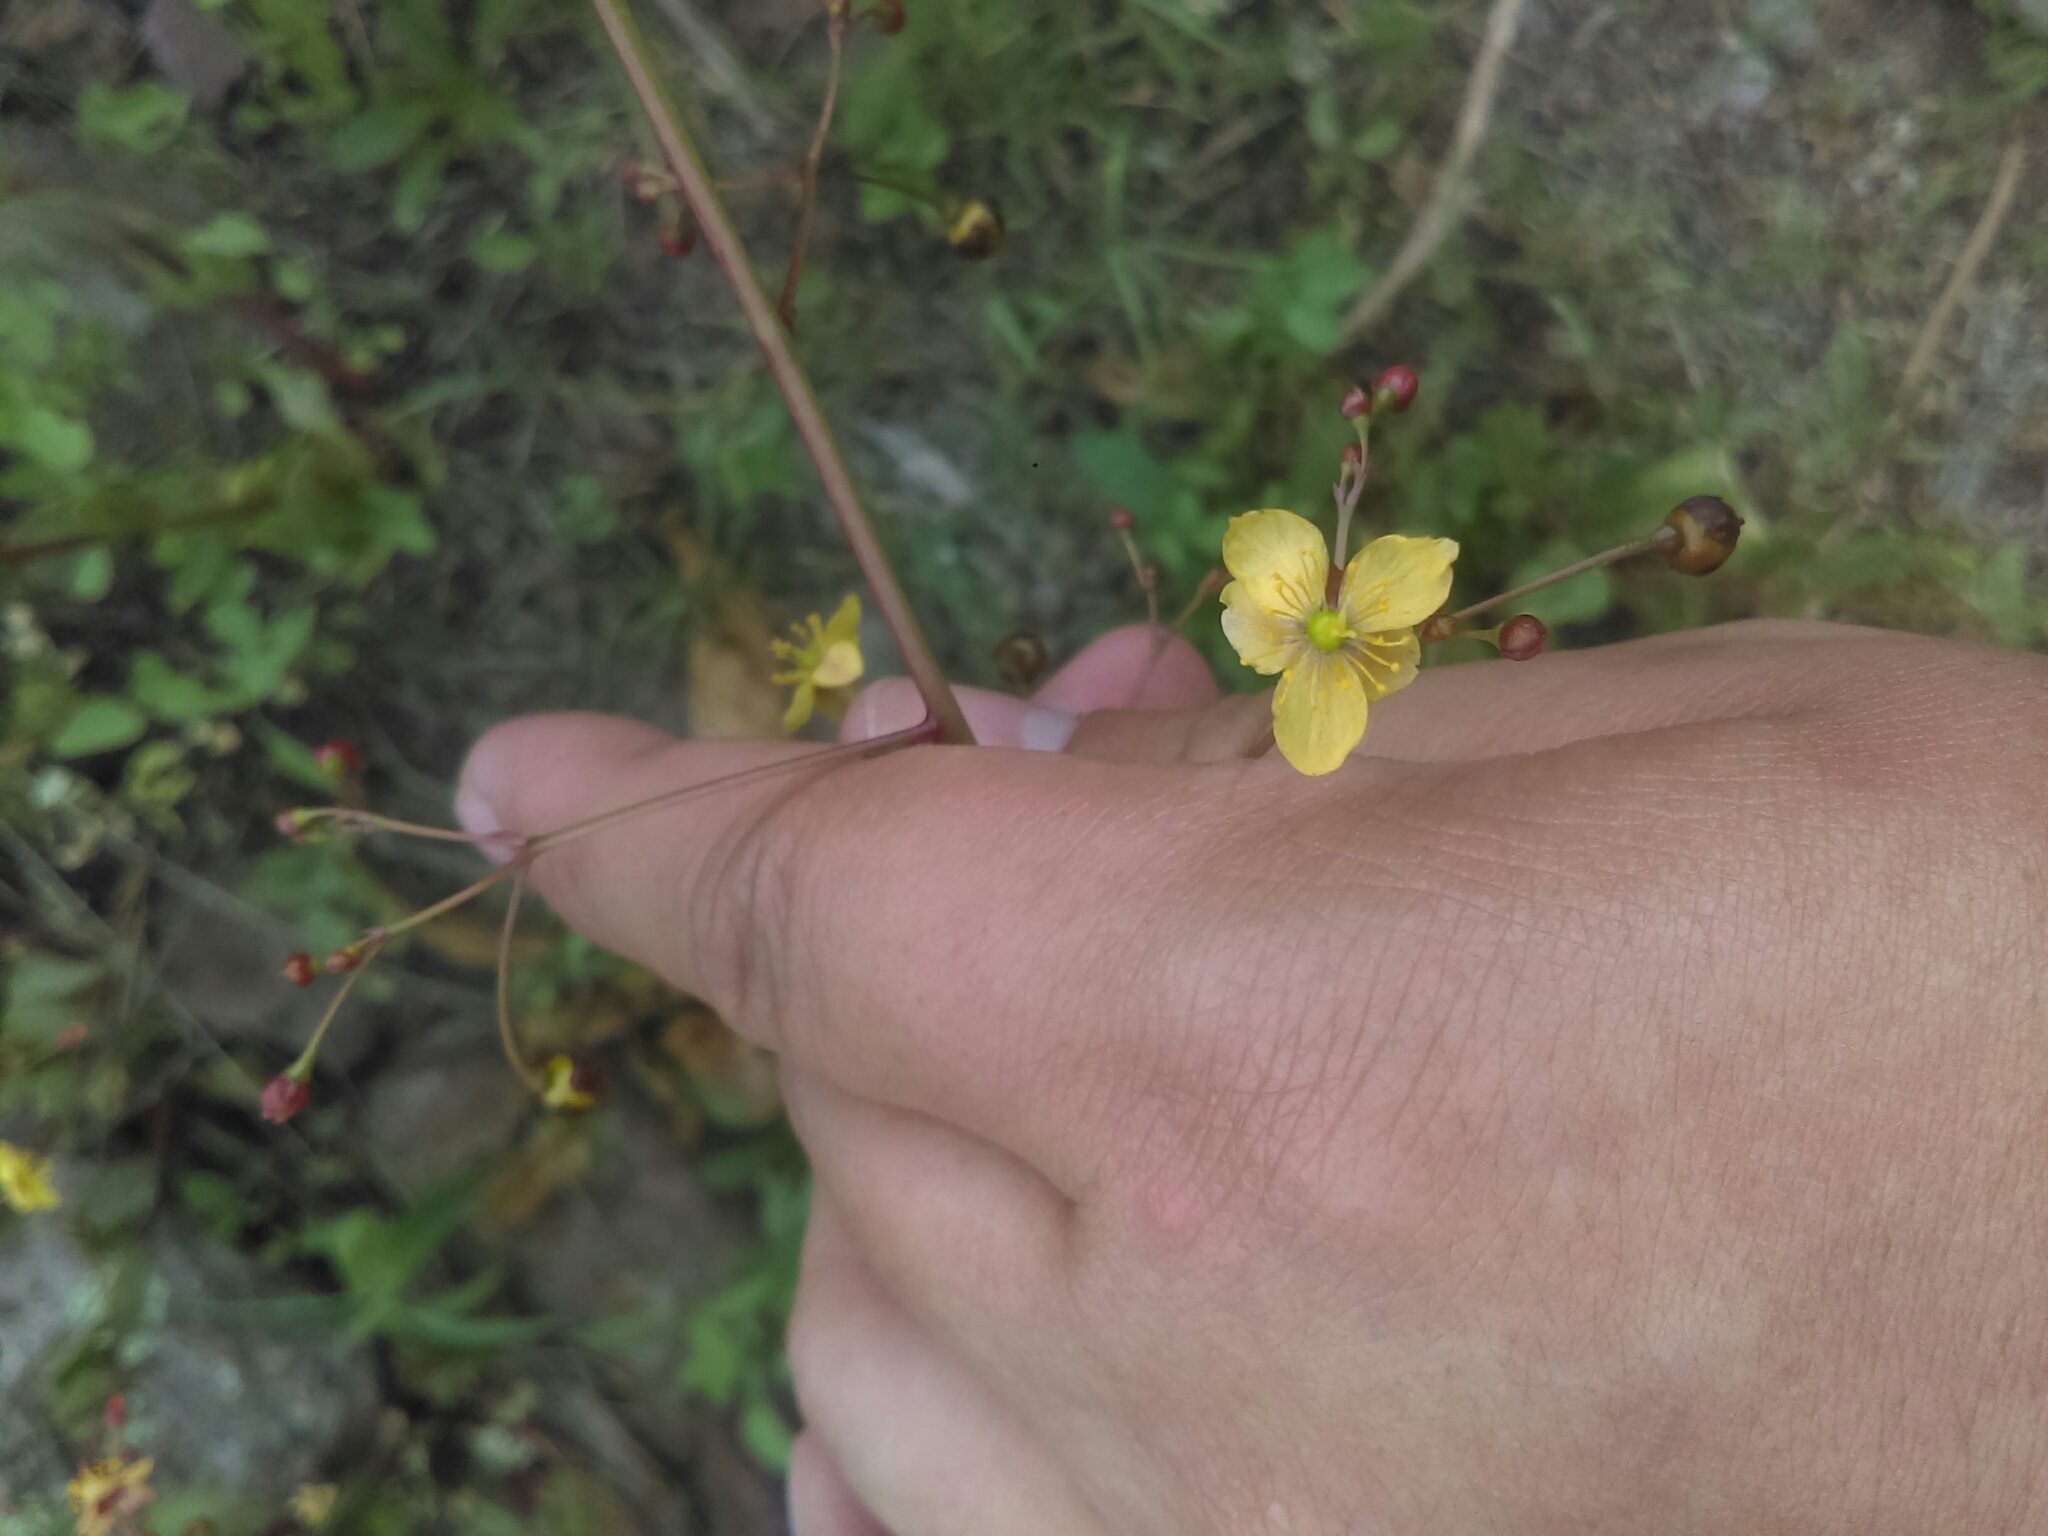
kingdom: Plantae
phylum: Tracheophyta
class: Magnoliopsida
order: Caryophyllales
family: Talinaceae
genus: Talinum
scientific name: Talinum paniculatum
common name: Jewels of opar
